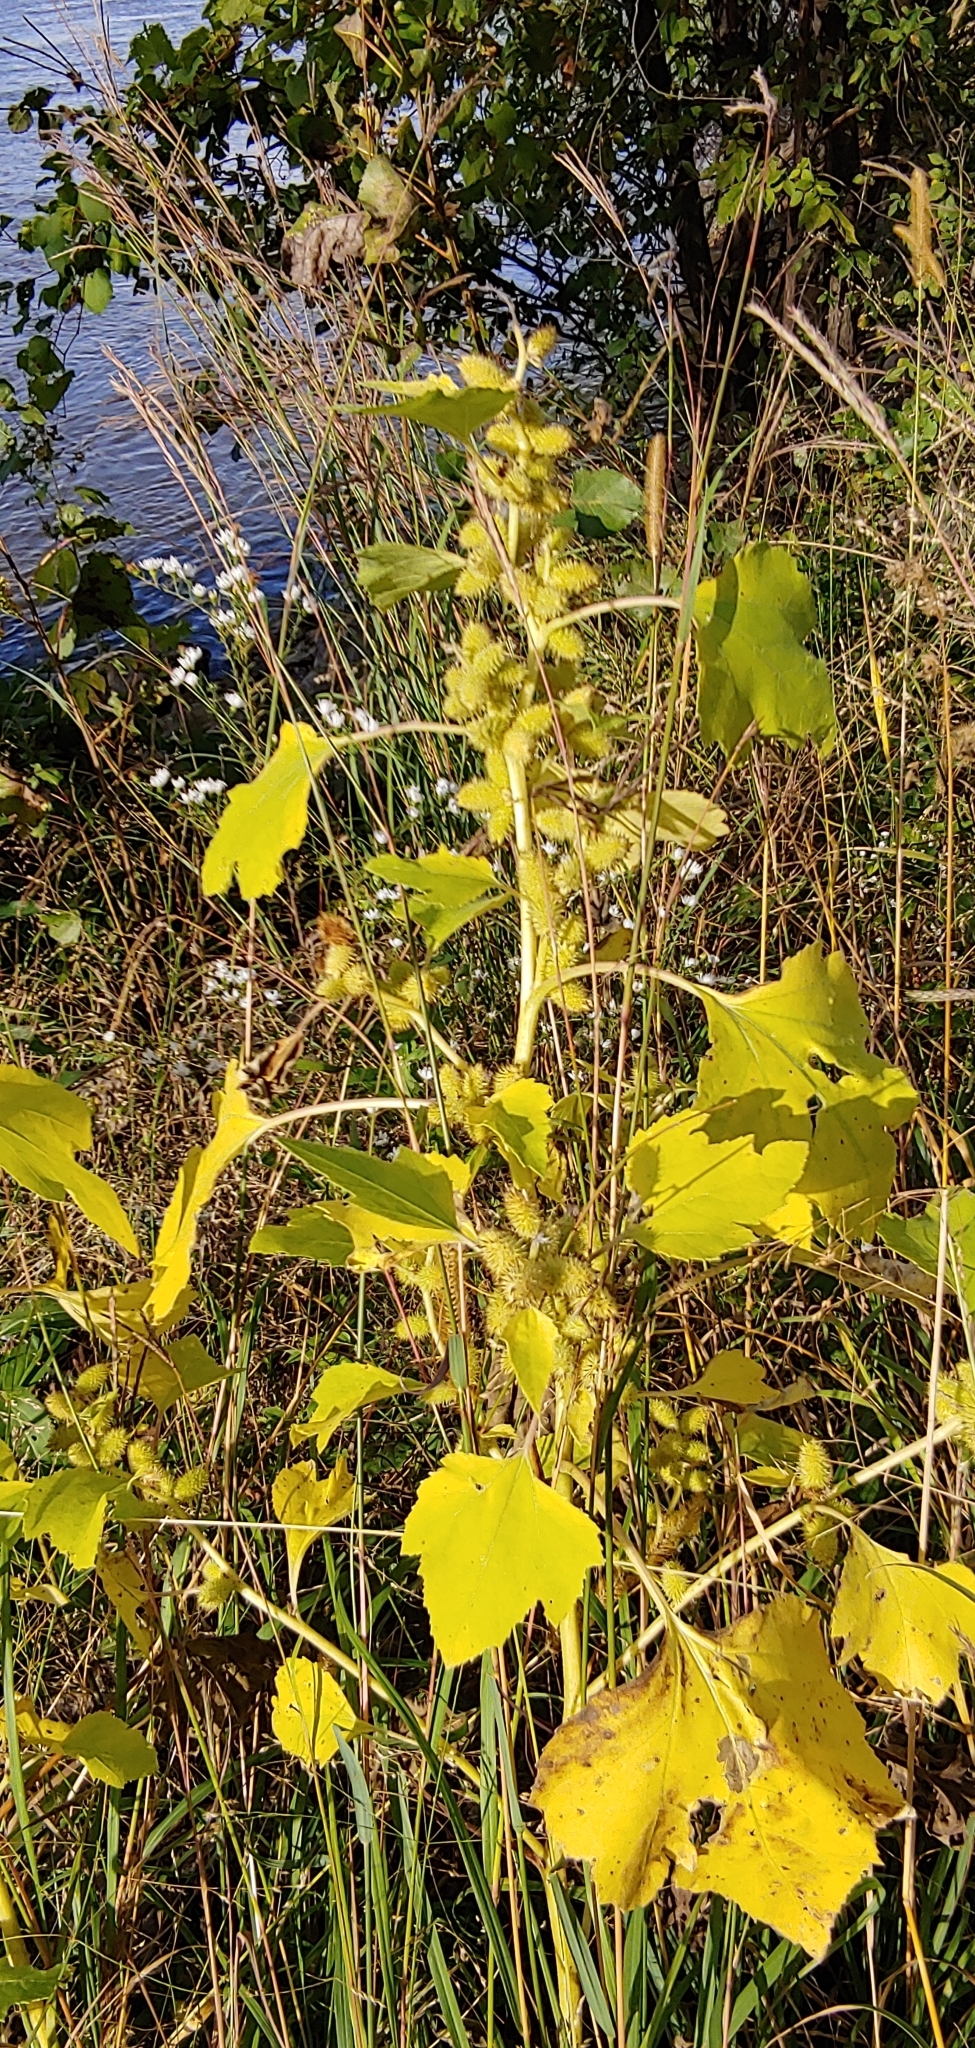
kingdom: Plantae
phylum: Tracheophyta
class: Magnoliopsida
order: Asterales
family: Asteraceae
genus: Xanthium
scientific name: Xanthium strumarium
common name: Rough cocklebur
